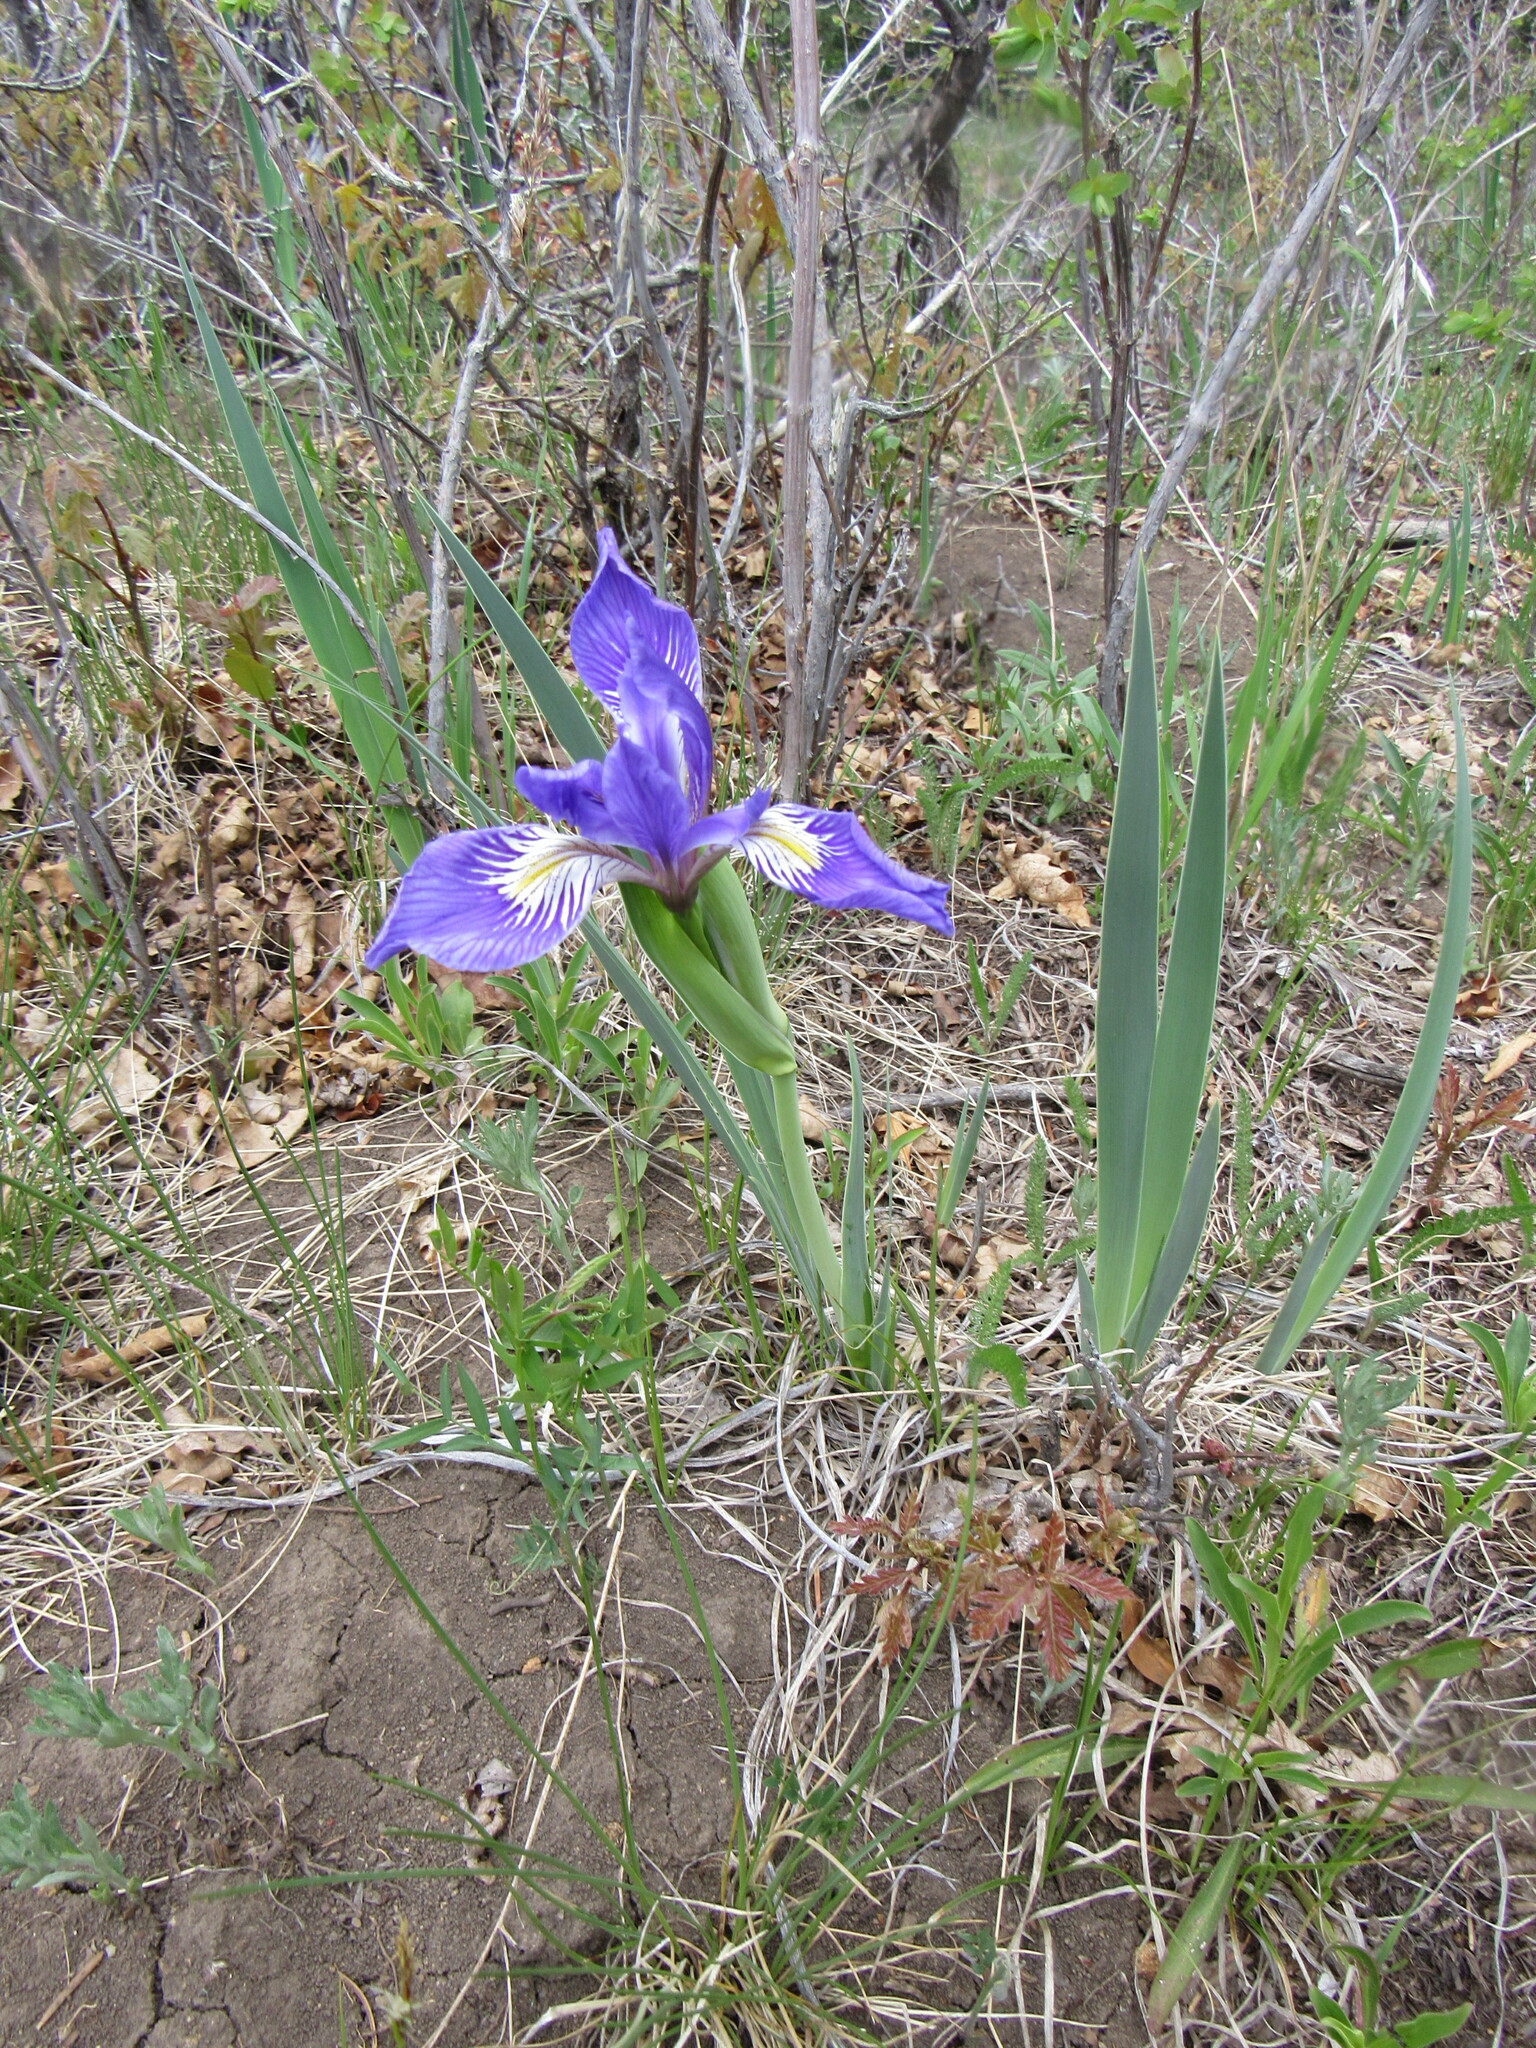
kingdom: Plantae
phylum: Tracheophyta
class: Liliopsida
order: Asparagales
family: Iridaceae
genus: Iris
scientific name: Iris missouriensis
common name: Rocky mountain iris
